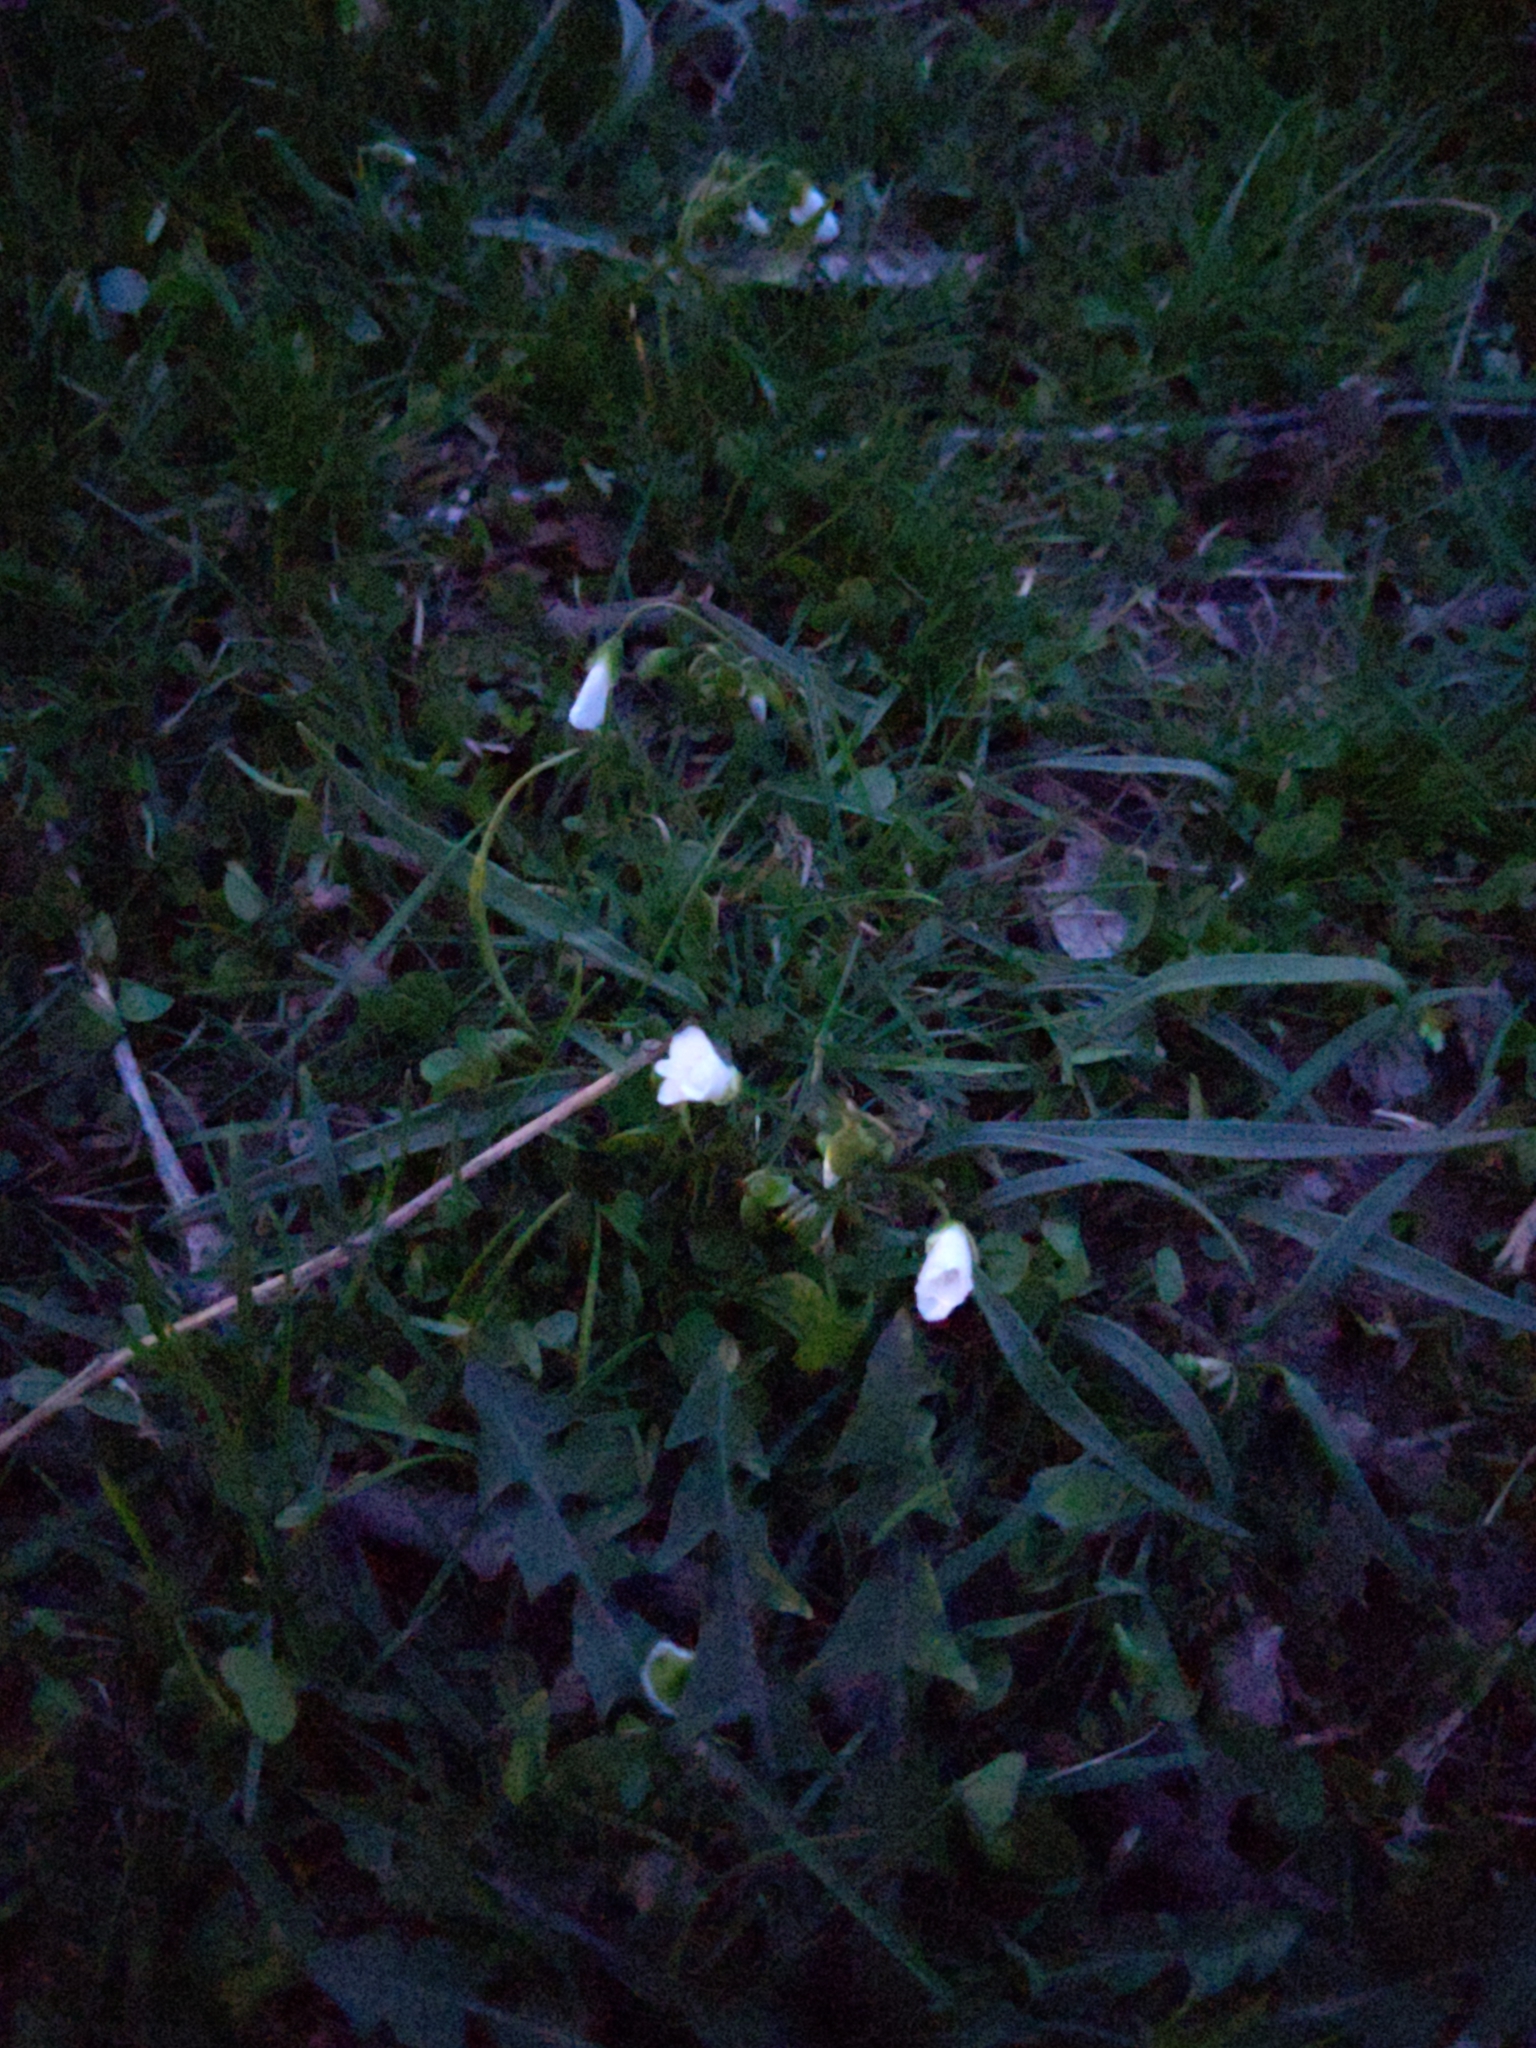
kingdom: Plantae
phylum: Tracheophyta
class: Magnoliopsida
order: Caryophyllales
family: Montiaceae
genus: Claytonia
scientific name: Claytonia virginica
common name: Virginia springbeauty
